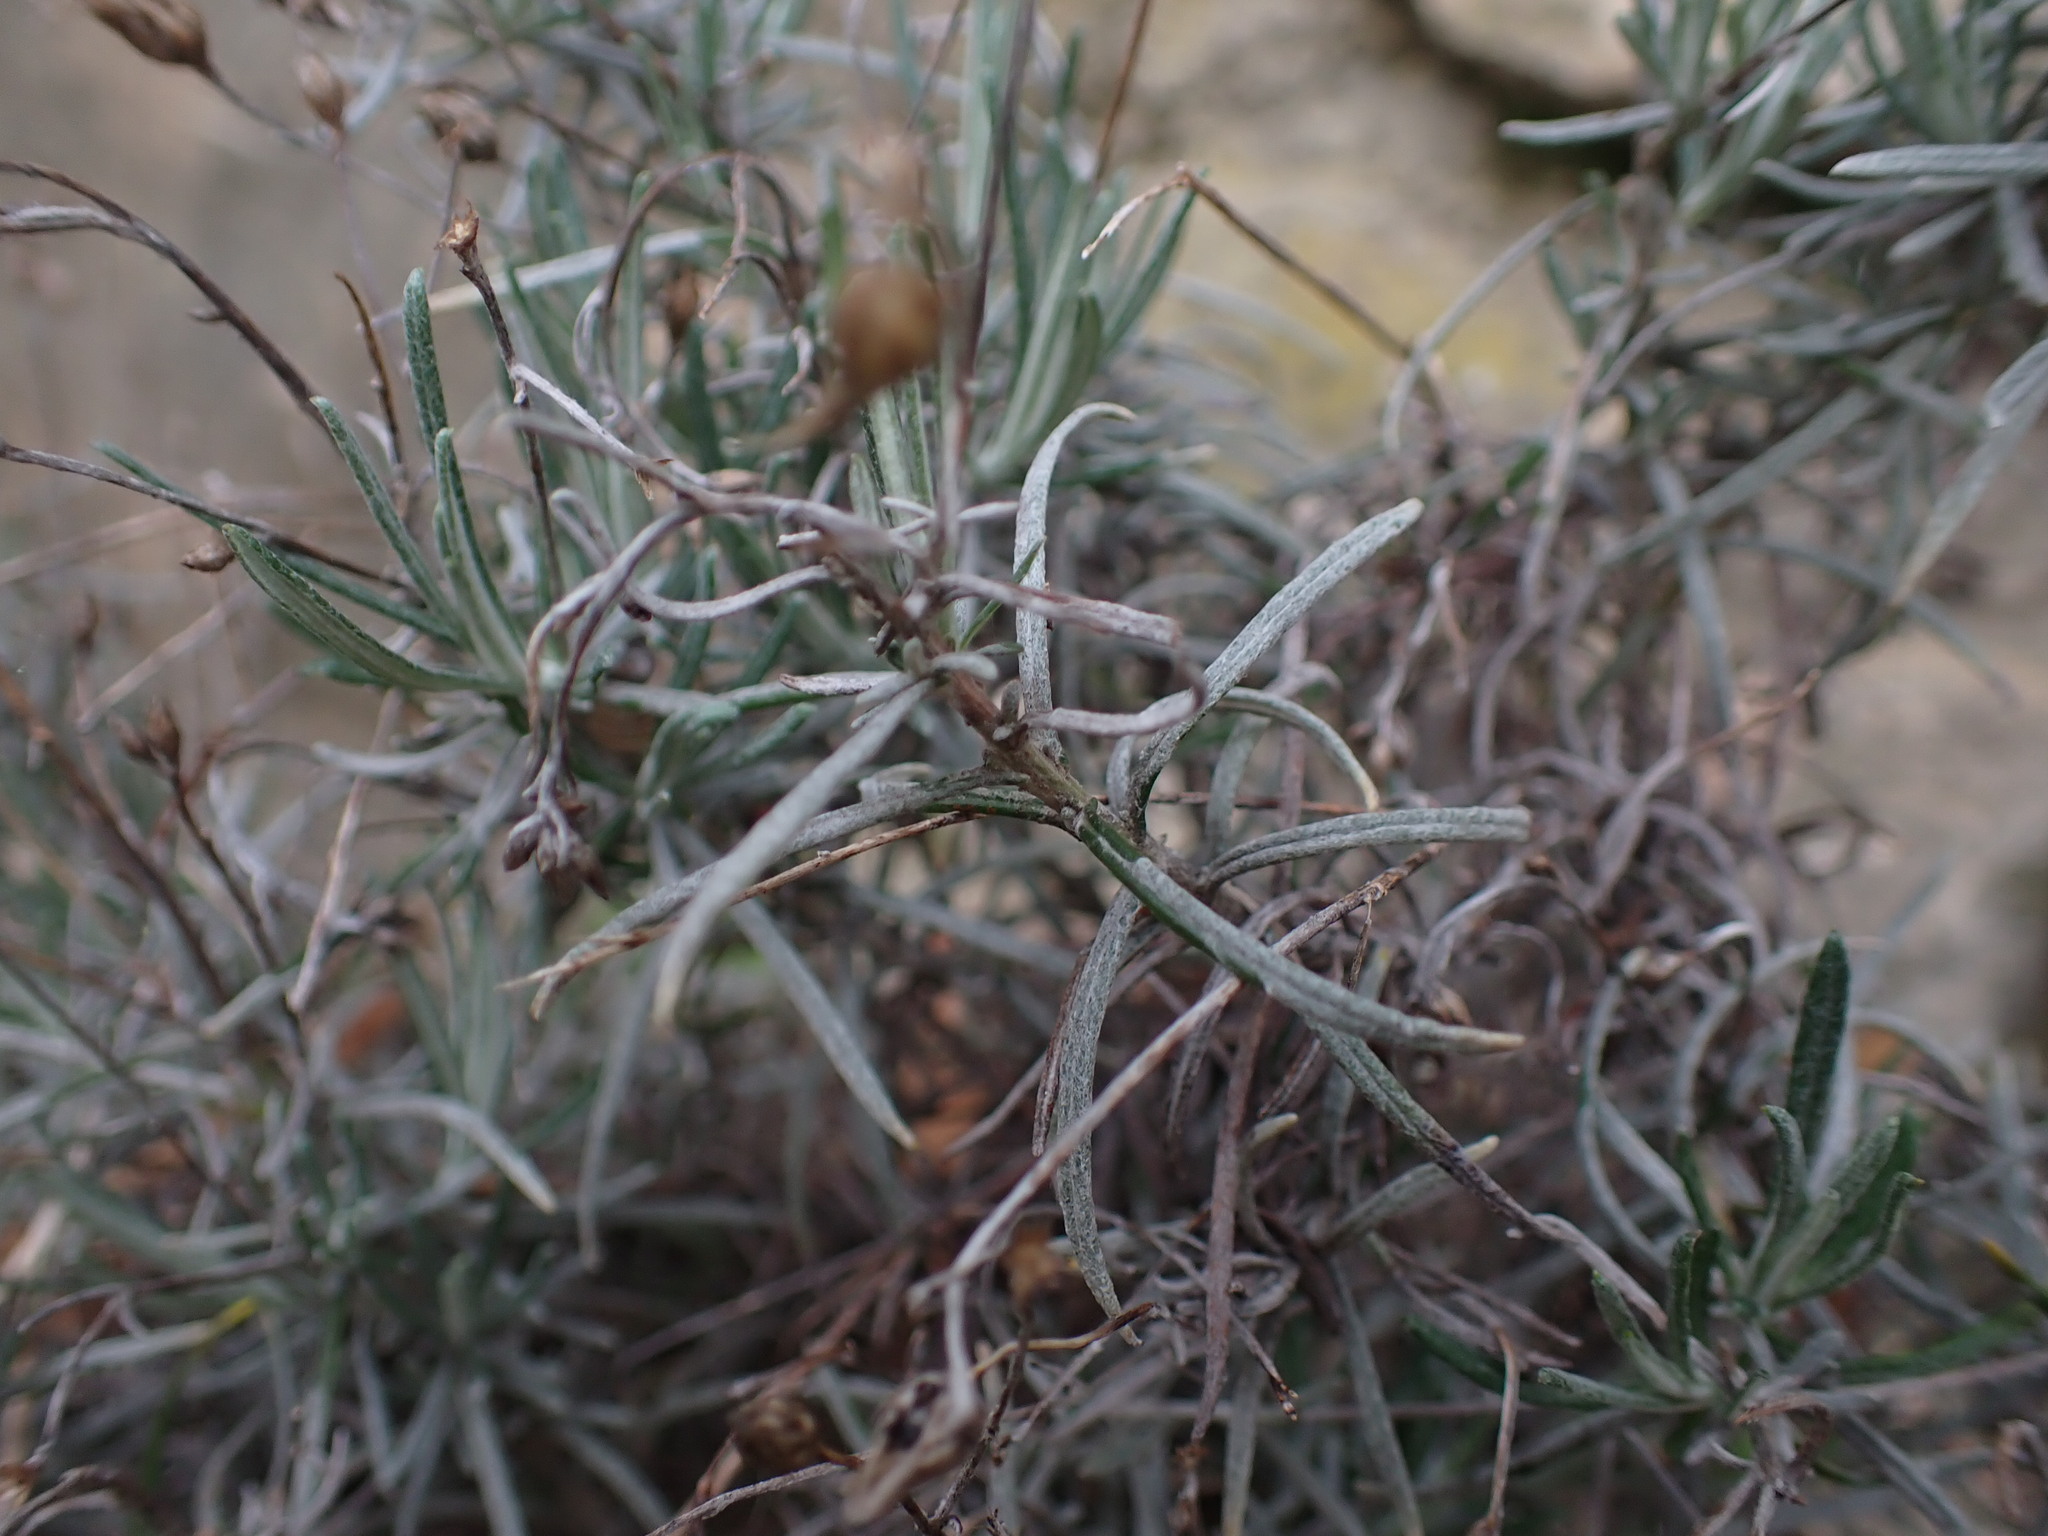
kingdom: Plantae
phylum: Tracheophyta
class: Magnoliopsida
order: Asterales
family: Asteraceae
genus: Phagnalon
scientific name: Phagnalon sordidum
